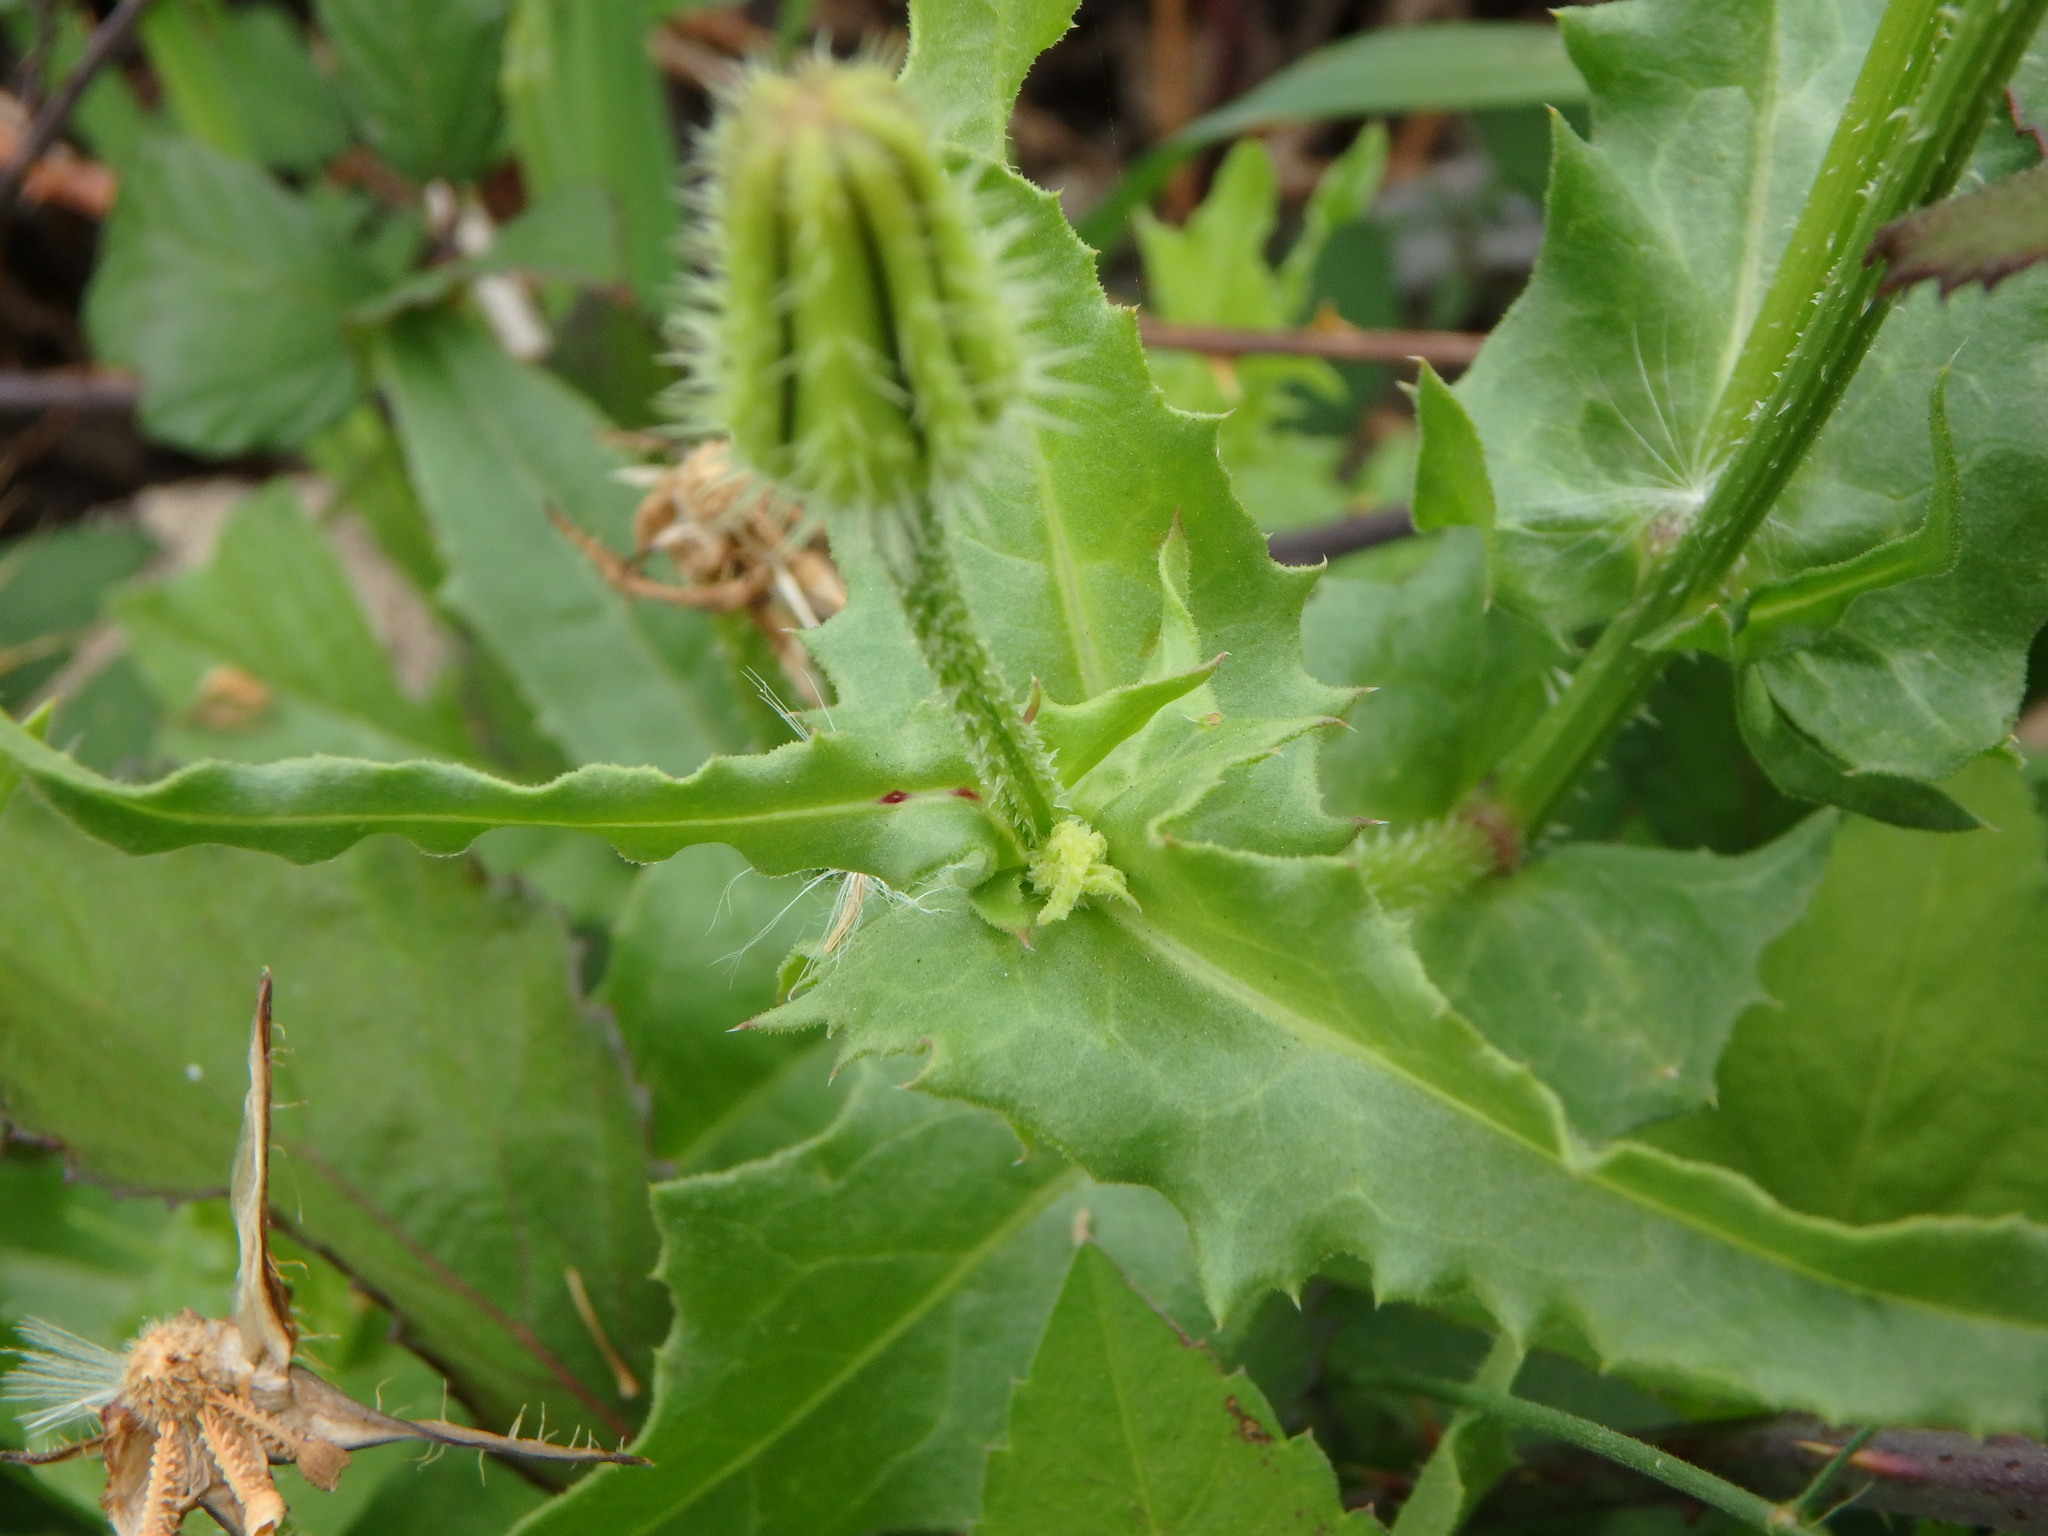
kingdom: Plantae
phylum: Tracheophyta
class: Magnoliopsida
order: Asterales
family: Asteraceae
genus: Urospermum
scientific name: Urospermum picroides
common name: False hawkbit
